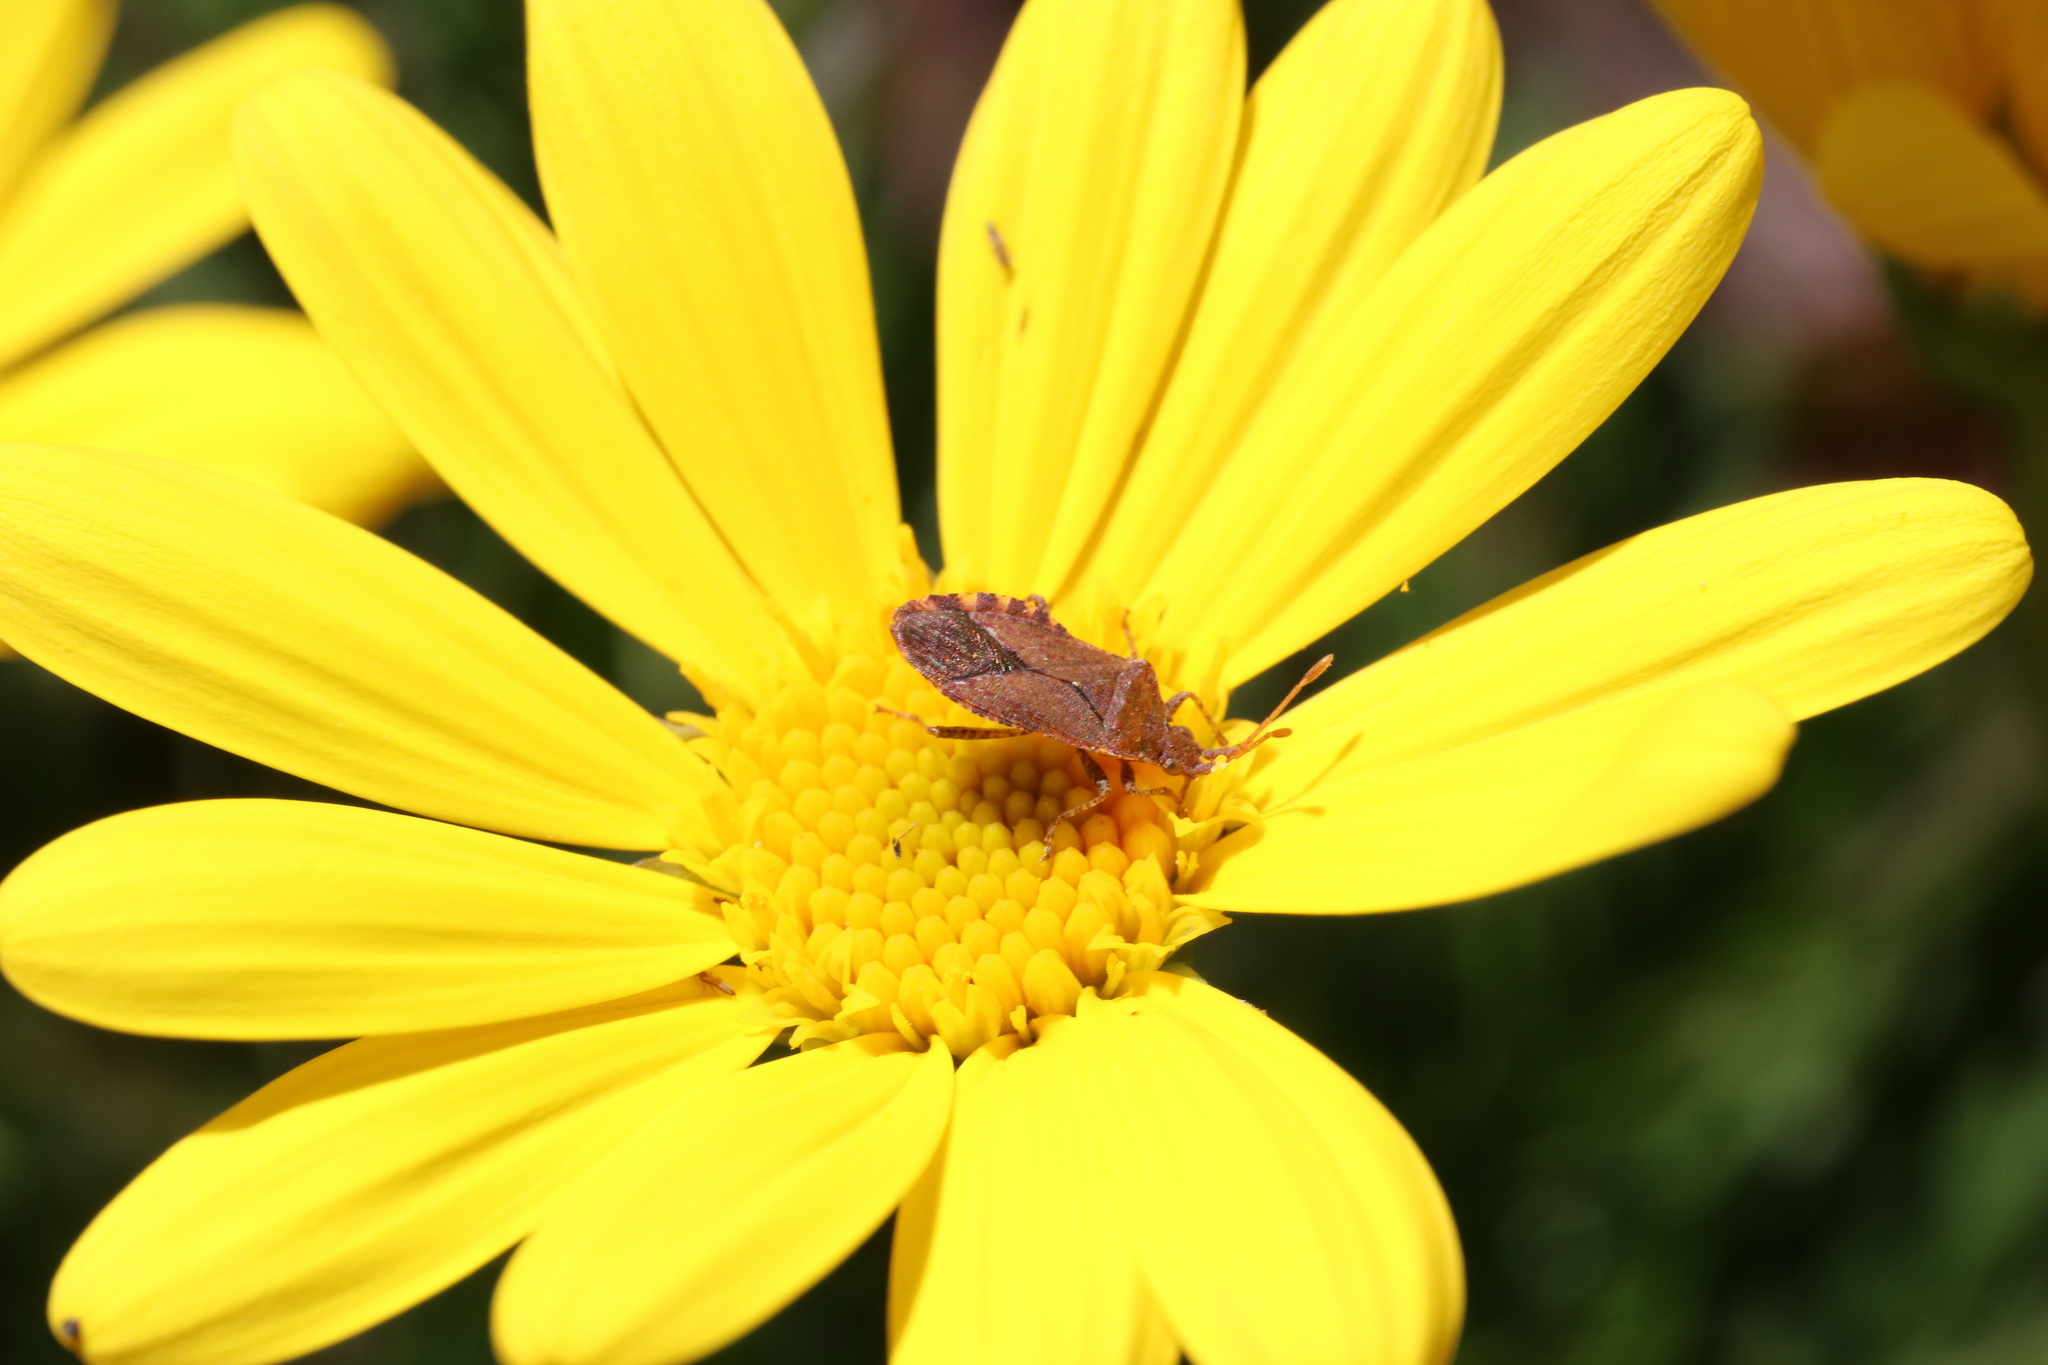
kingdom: Animalia
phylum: Arthropoda
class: Insecta
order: Hemiptera
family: Coreidae
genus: Althos
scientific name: Althos
